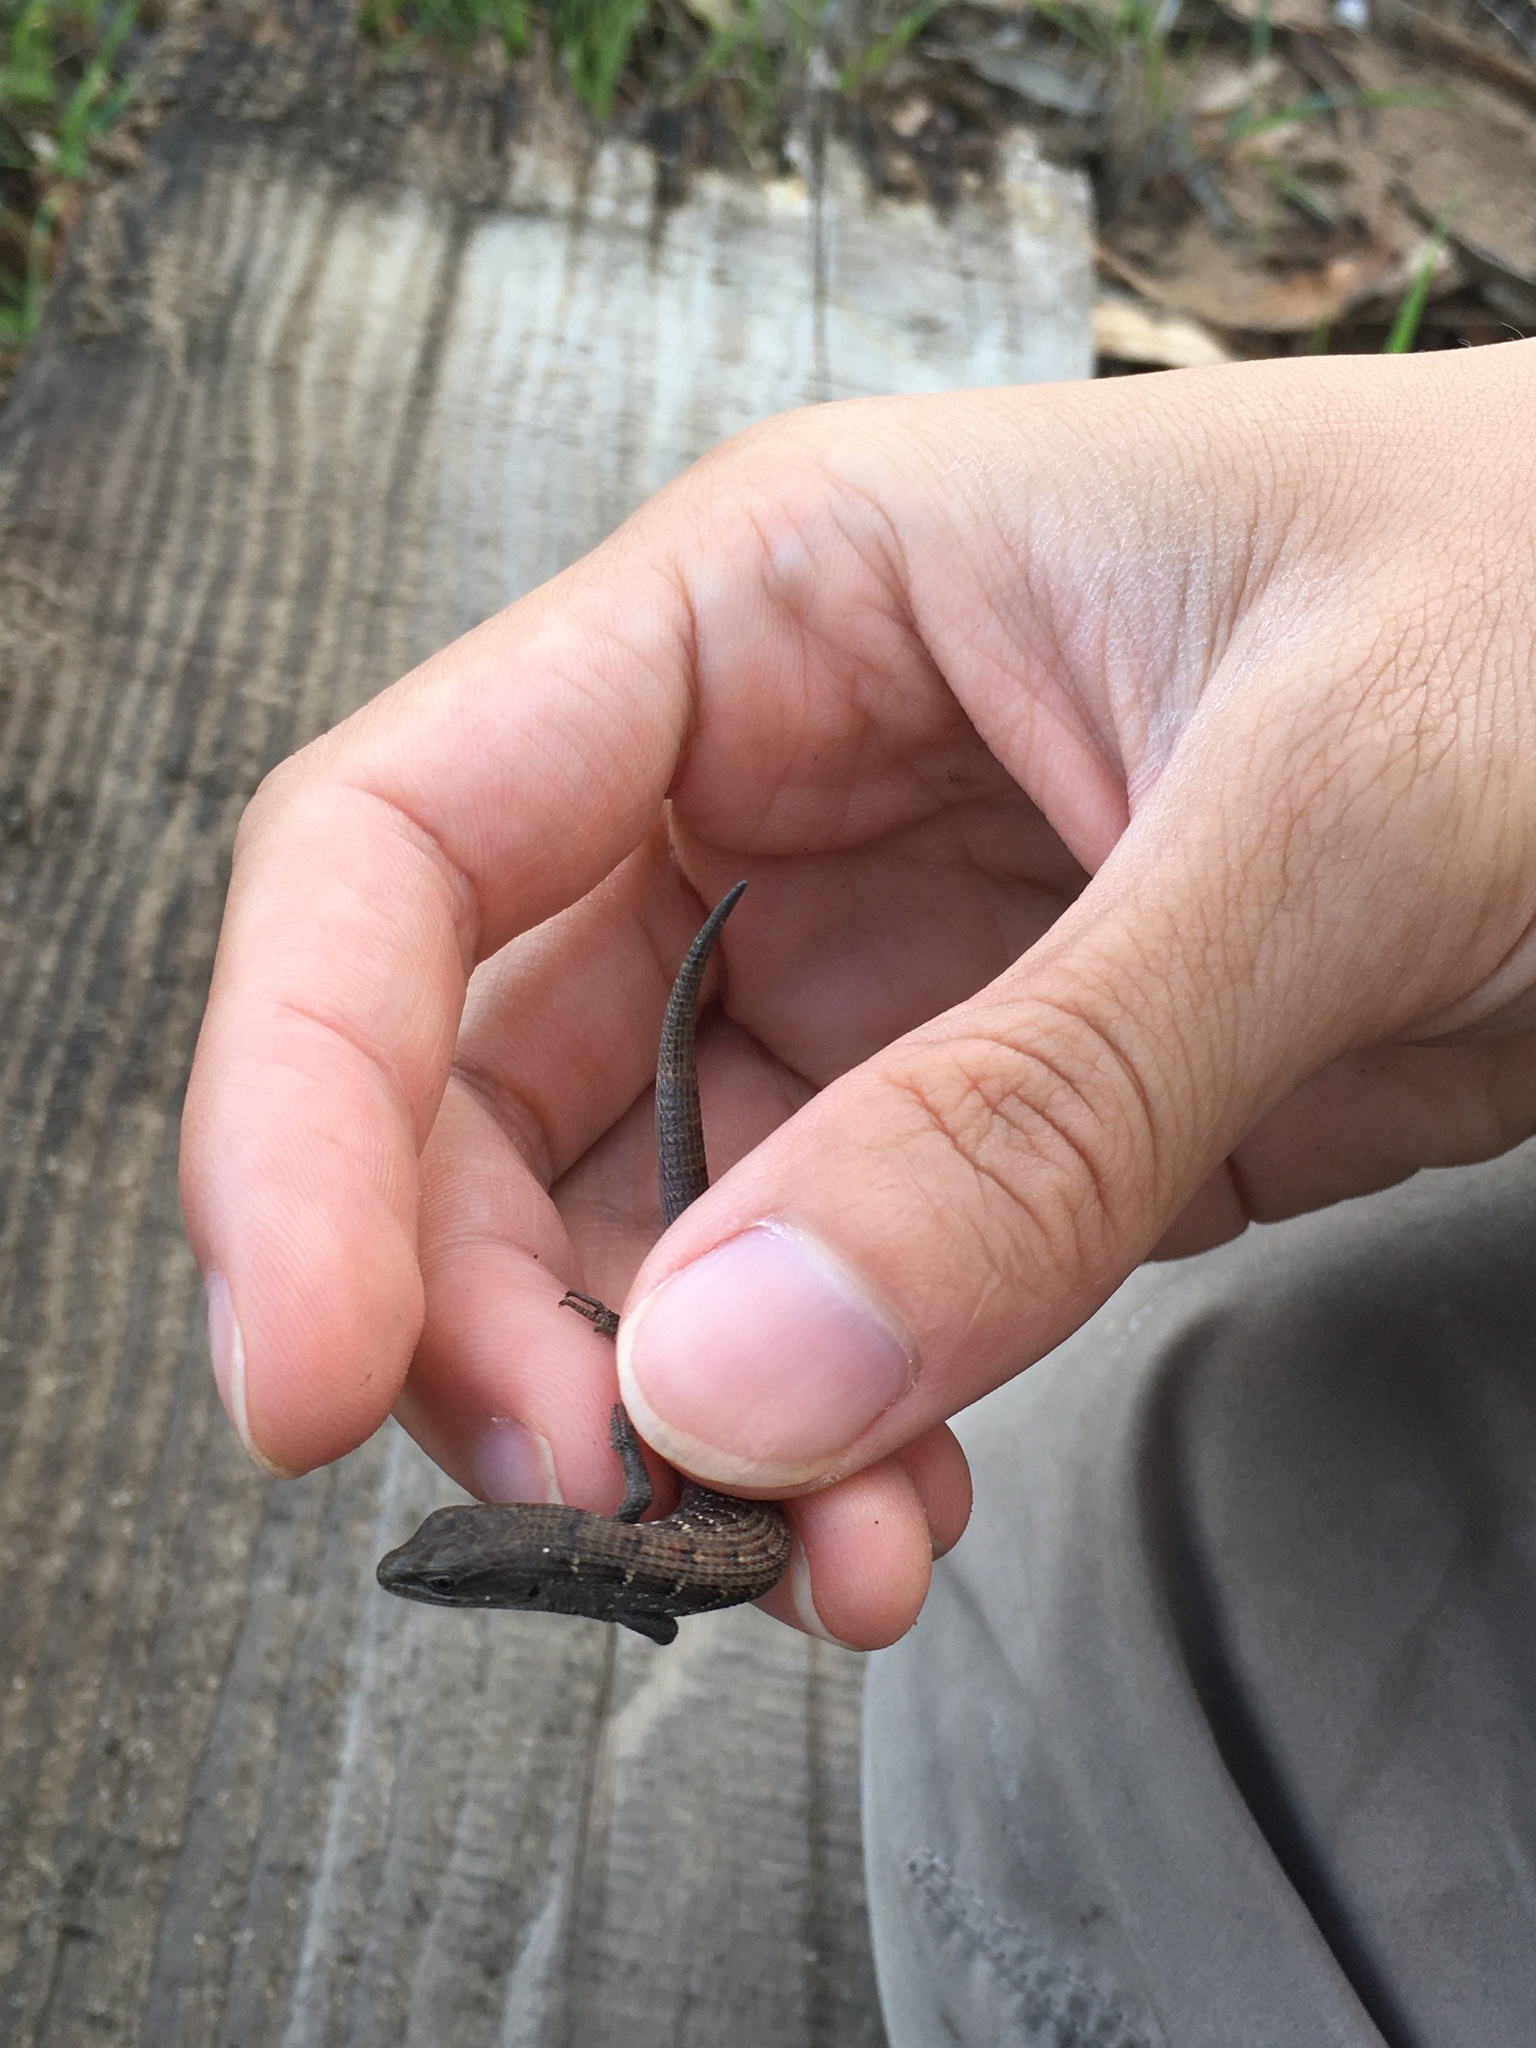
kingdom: Animalia
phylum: Chordata
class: Squamata
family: Anguidae
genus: Elgaria
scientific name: Elgaria multicarinata
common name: Southern alligator lizard
